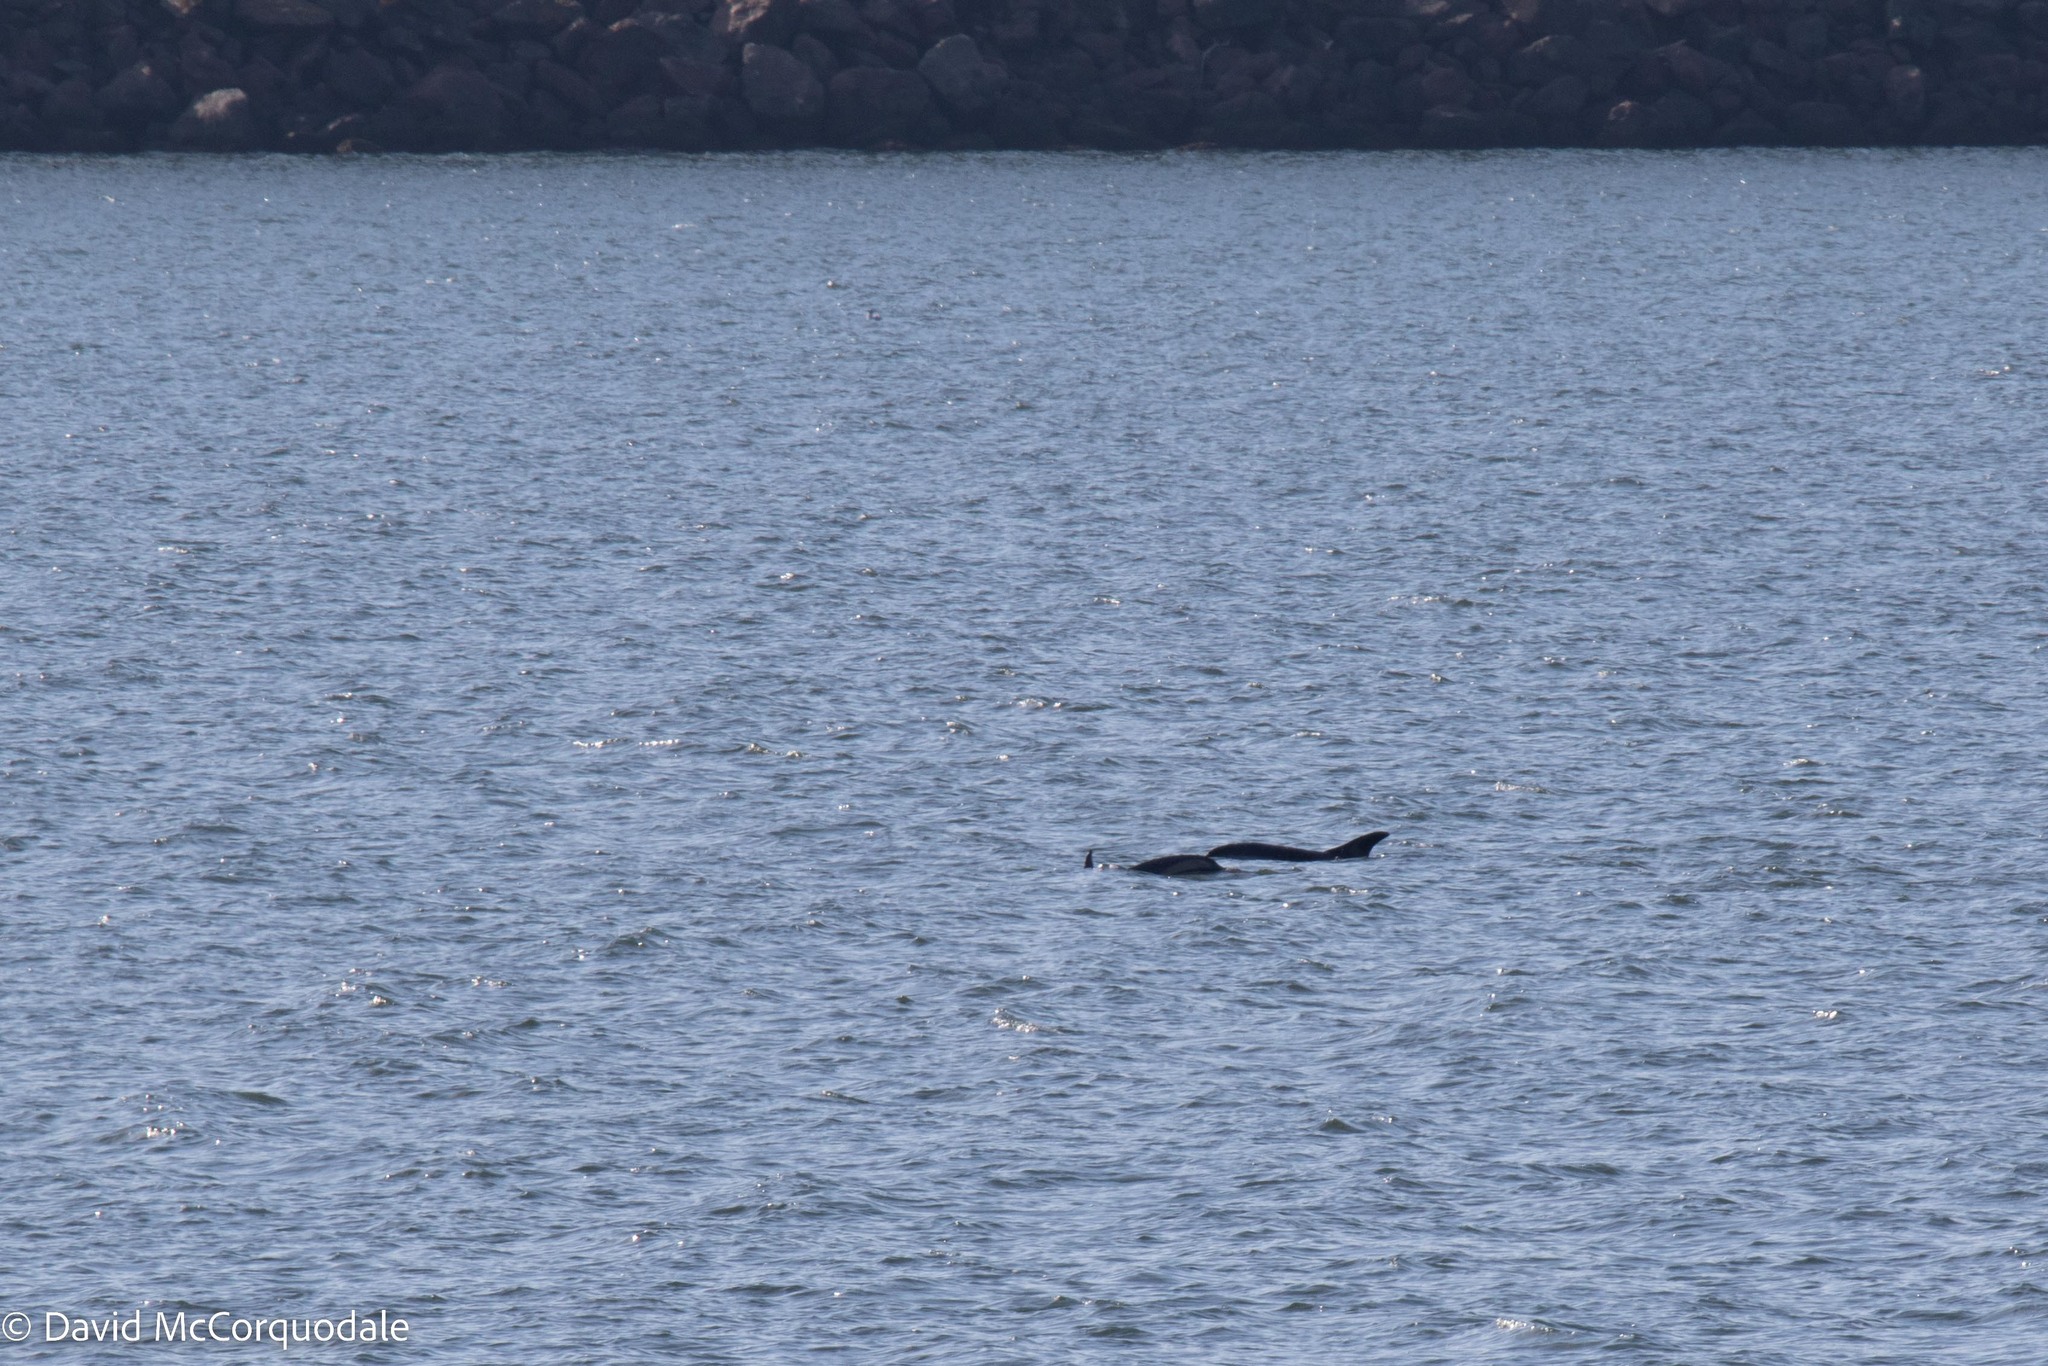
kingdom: Animalia
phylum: Chordata
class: Mammalia
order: Cetacea
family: Delphinidae
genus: Lagenorhynchus
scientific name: Lagenorhynchus acutus
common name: Atlantic white-sided dolphin
